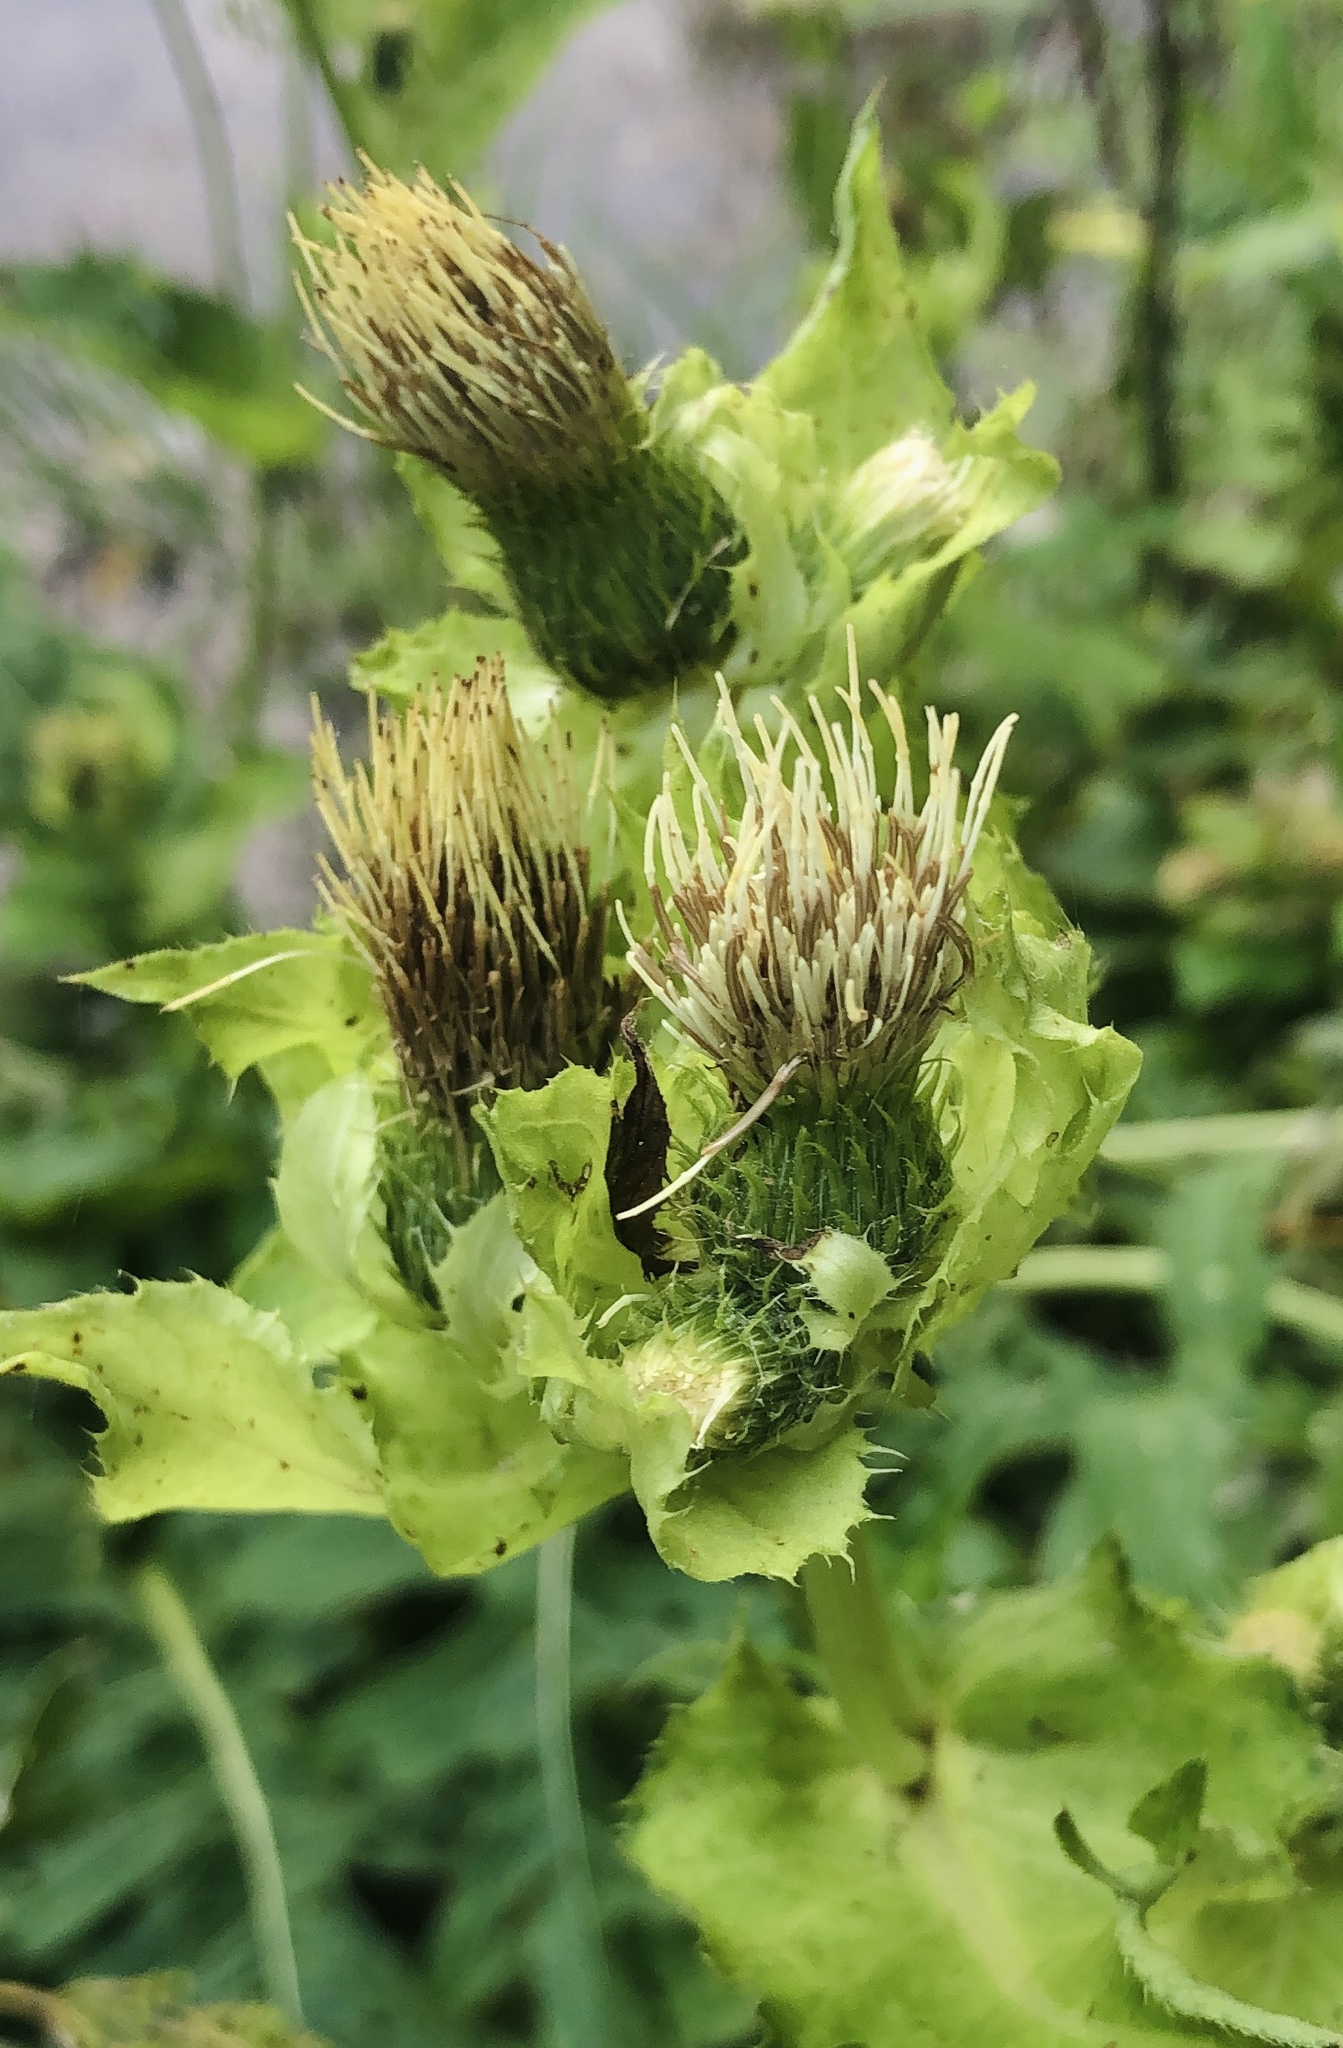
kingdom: Plantae
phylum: Tracheophyta
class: Magnoliopsida
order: Asterales
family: Asteraceae
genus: Cirsium
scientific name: Cirsium oleraceum
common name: Cabbage thistle
